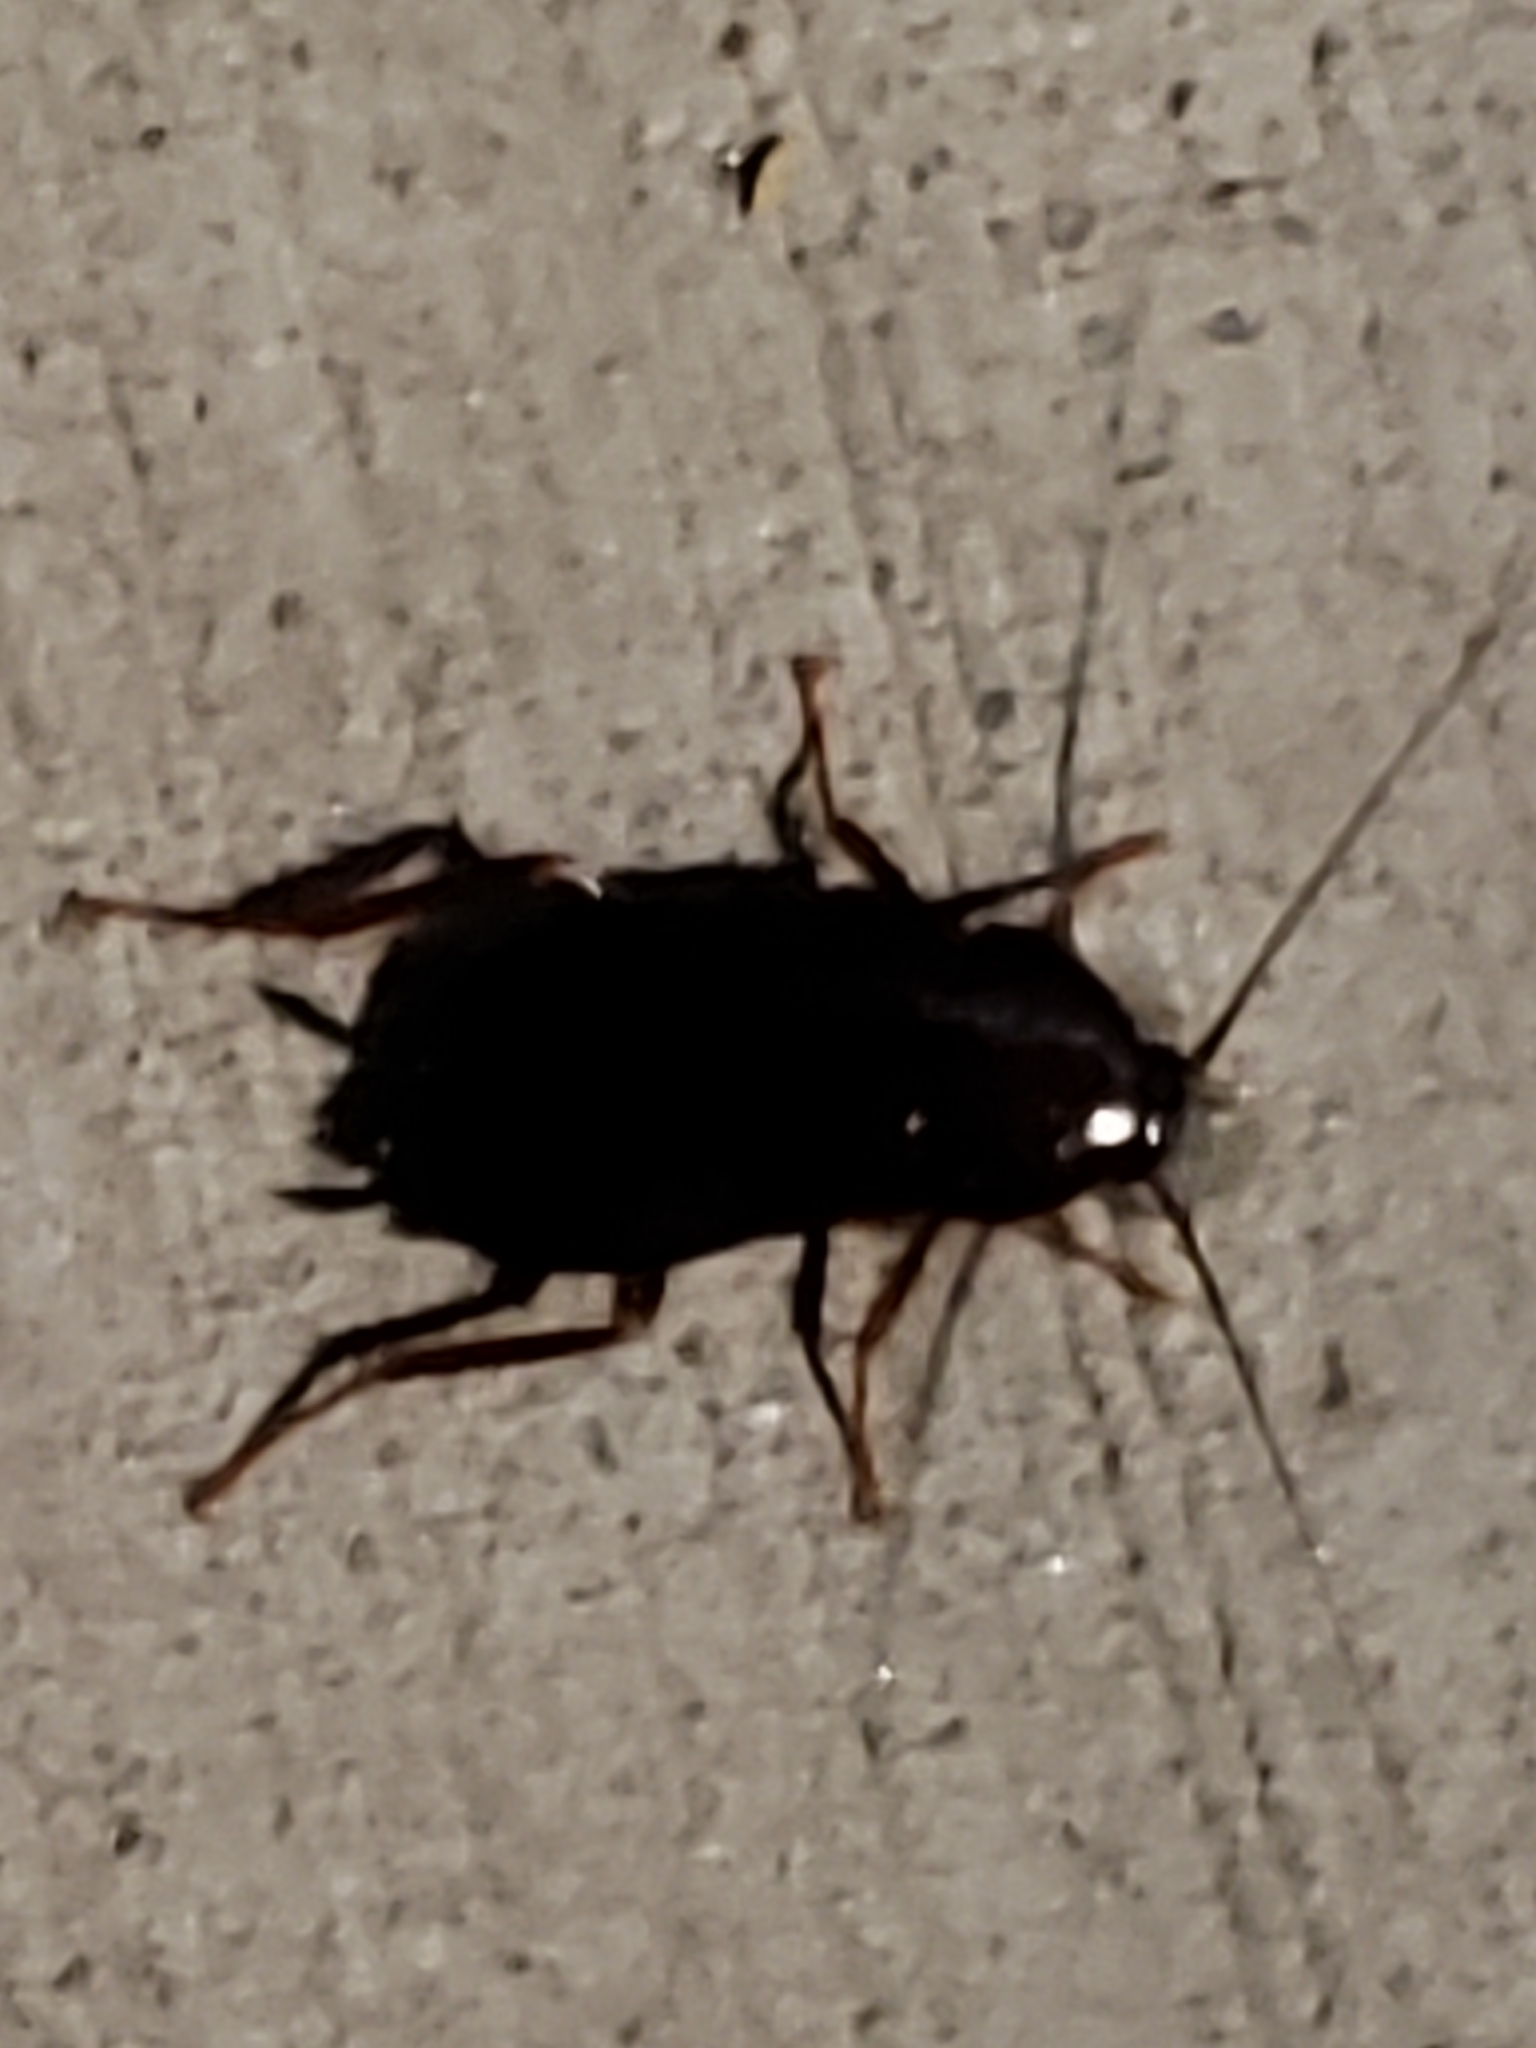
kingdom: Animalia
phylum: Arthropoda
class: Insecta
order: Blattodea
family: Blattidae
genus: Blatta
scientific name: Blatta orientalis
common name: Oriental cockroach
